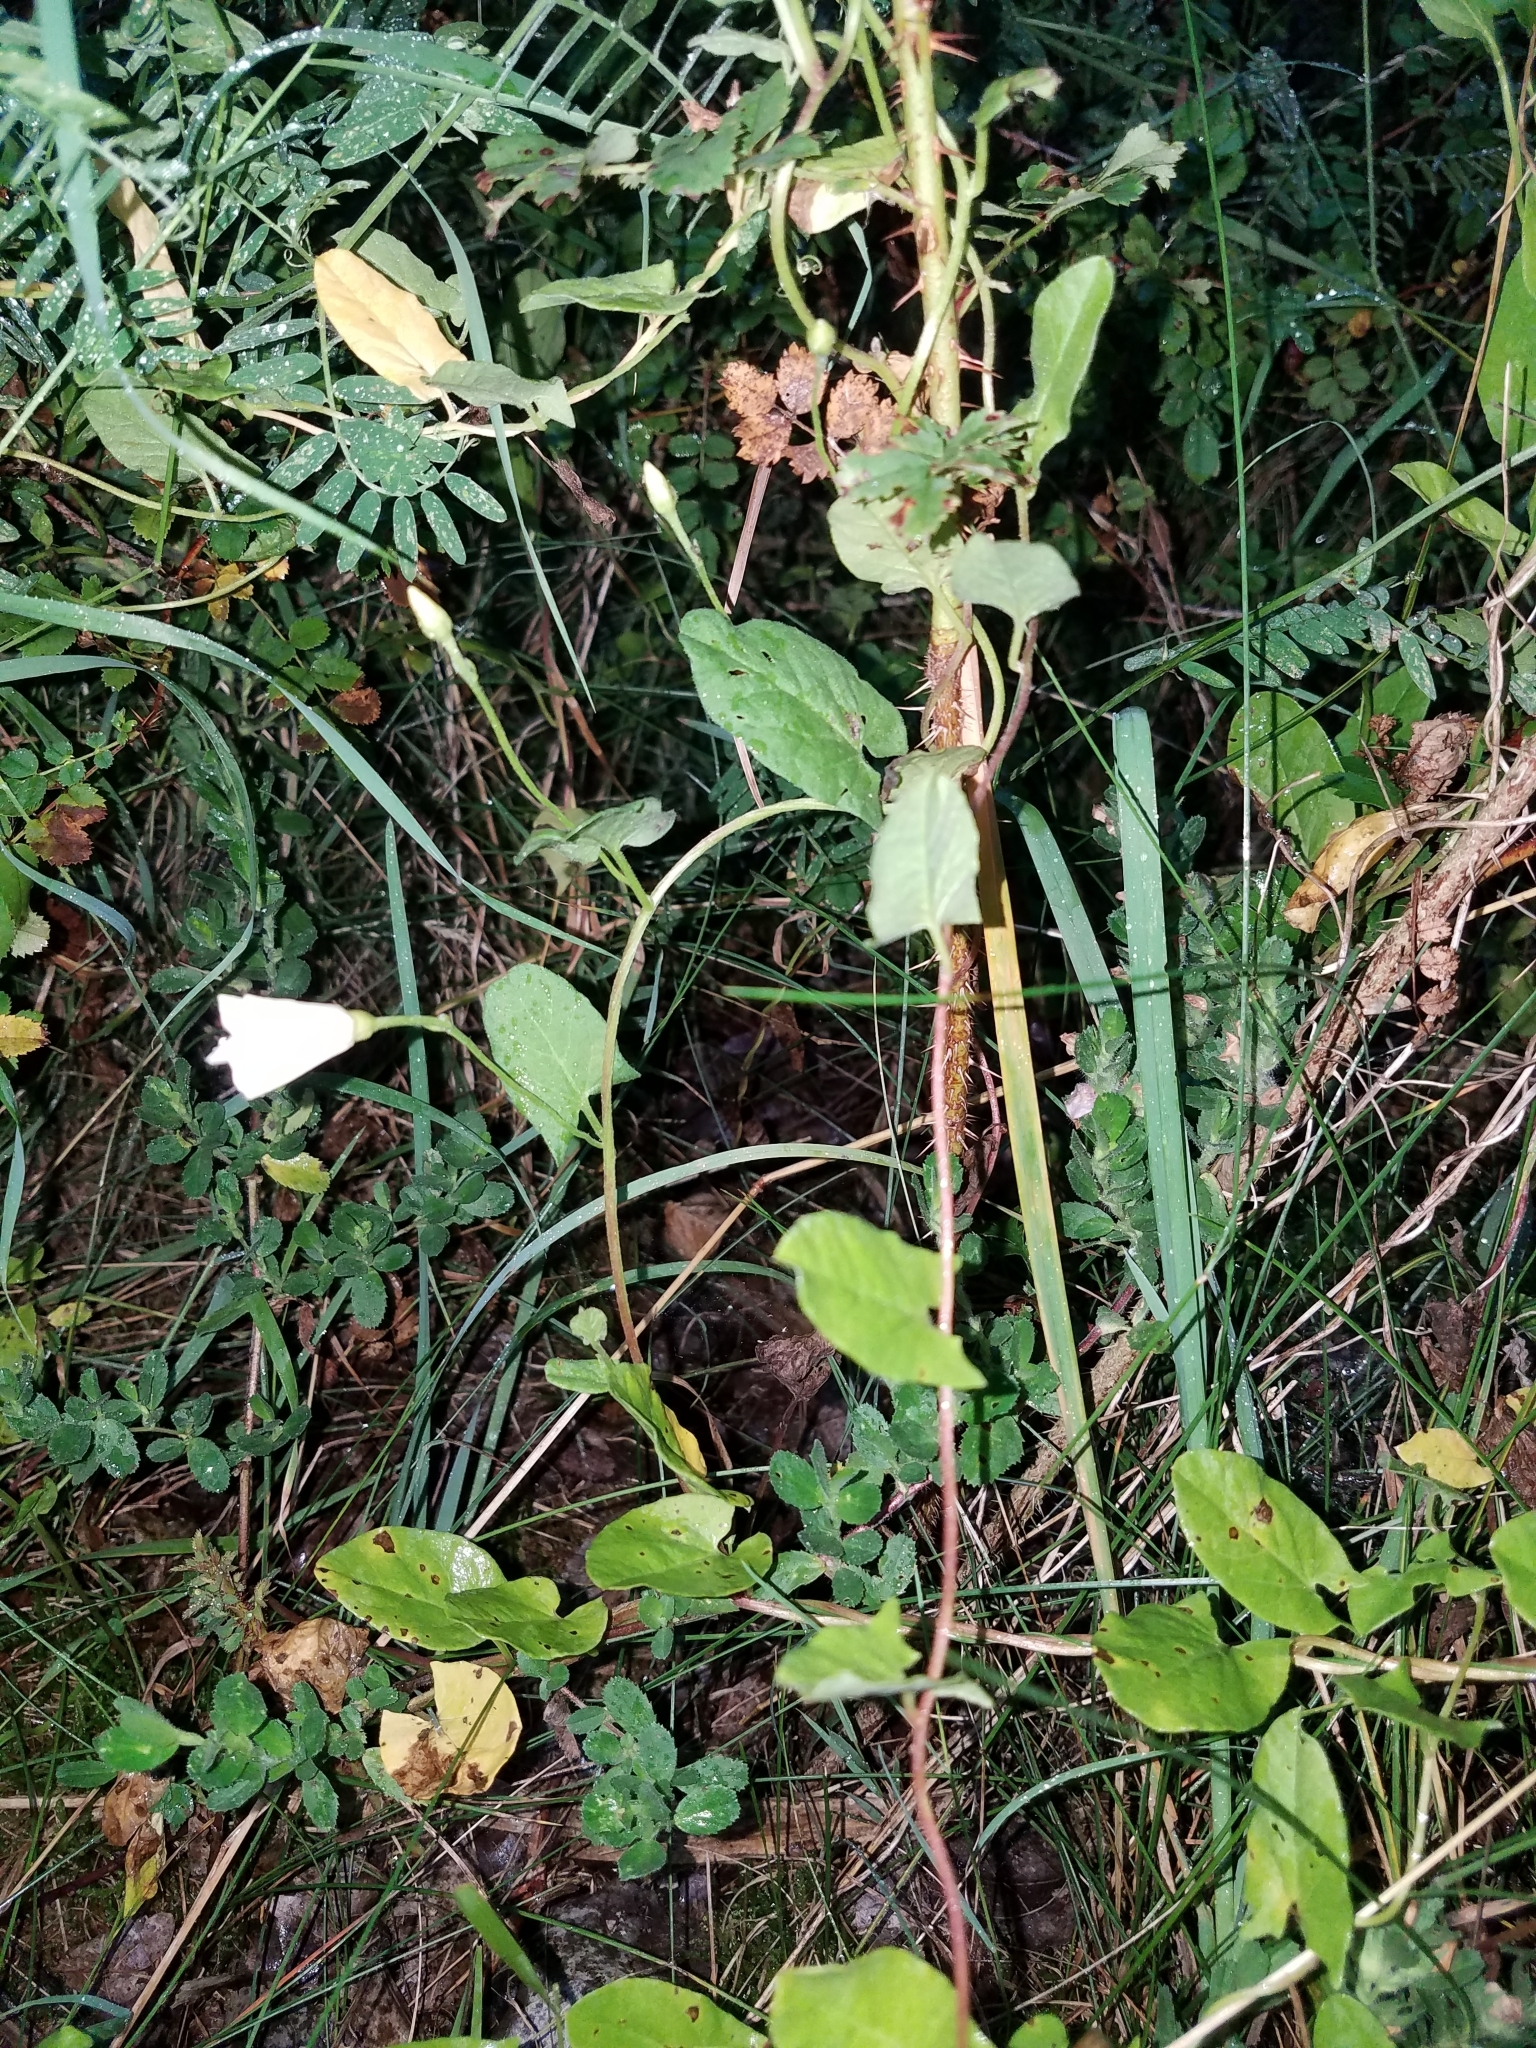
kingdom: Plantae
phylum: Tracheophyta
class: Magnoliopsida
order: Solanales
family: Convolvulaceae
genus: Convolvulus
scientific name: Convolvulus arvensis
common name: Field bindweed
